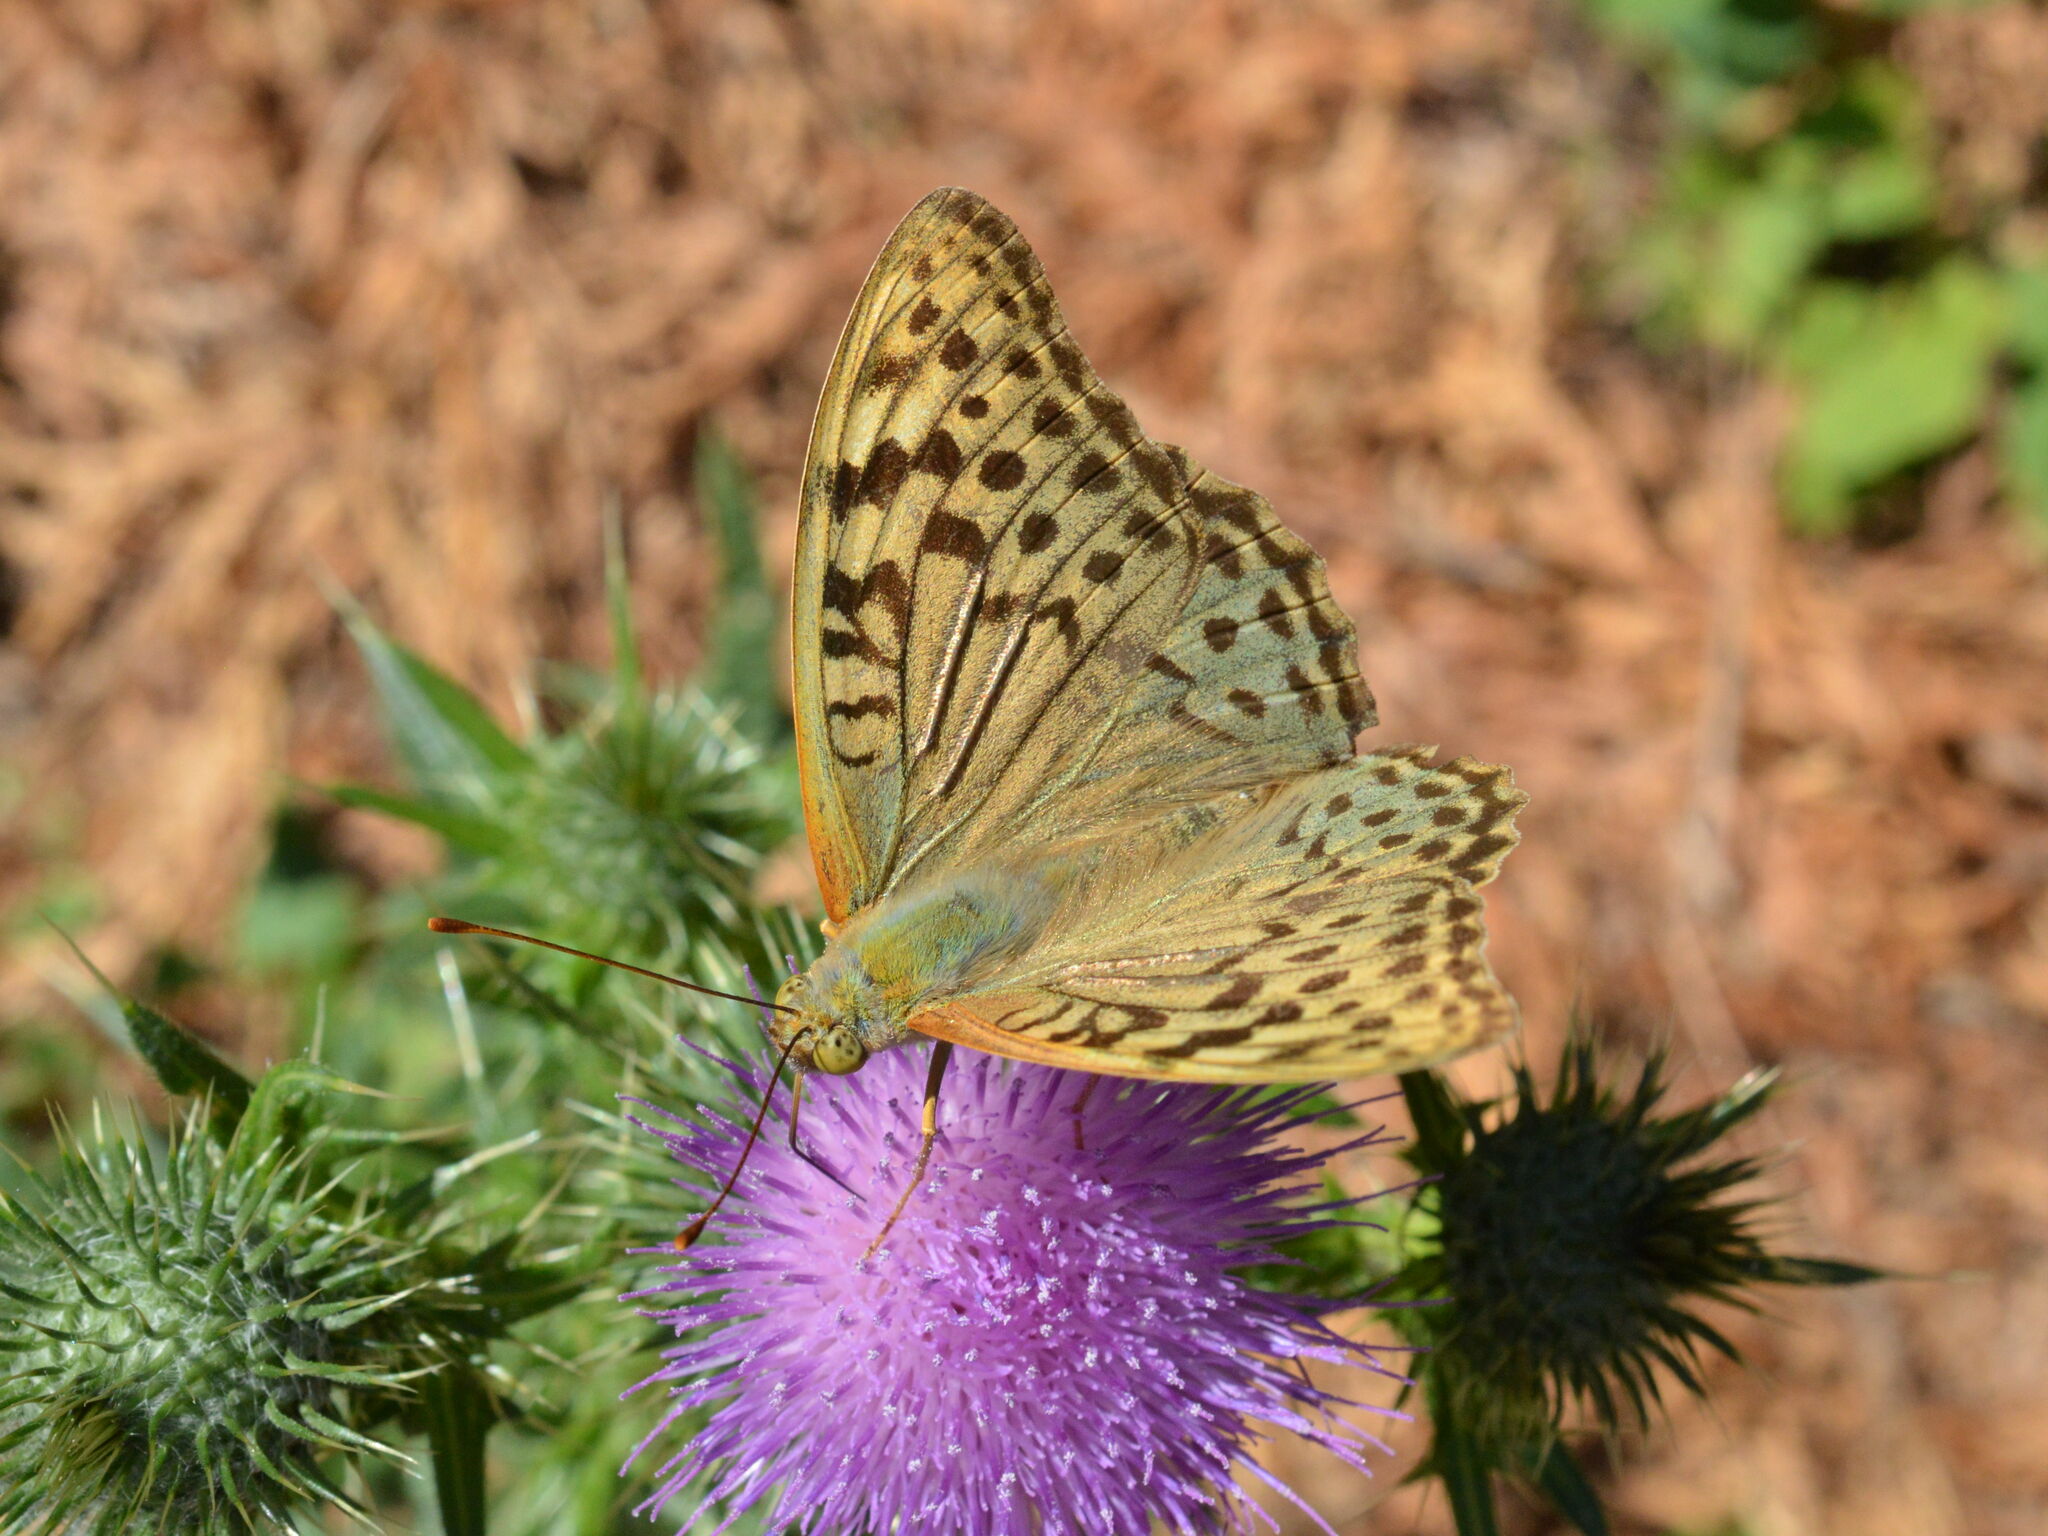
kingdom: Animalia
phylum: Arthropoda
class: Insecta
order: Lepidoptera
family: Nymphalidae
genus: Damora
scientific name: Damora pandora
